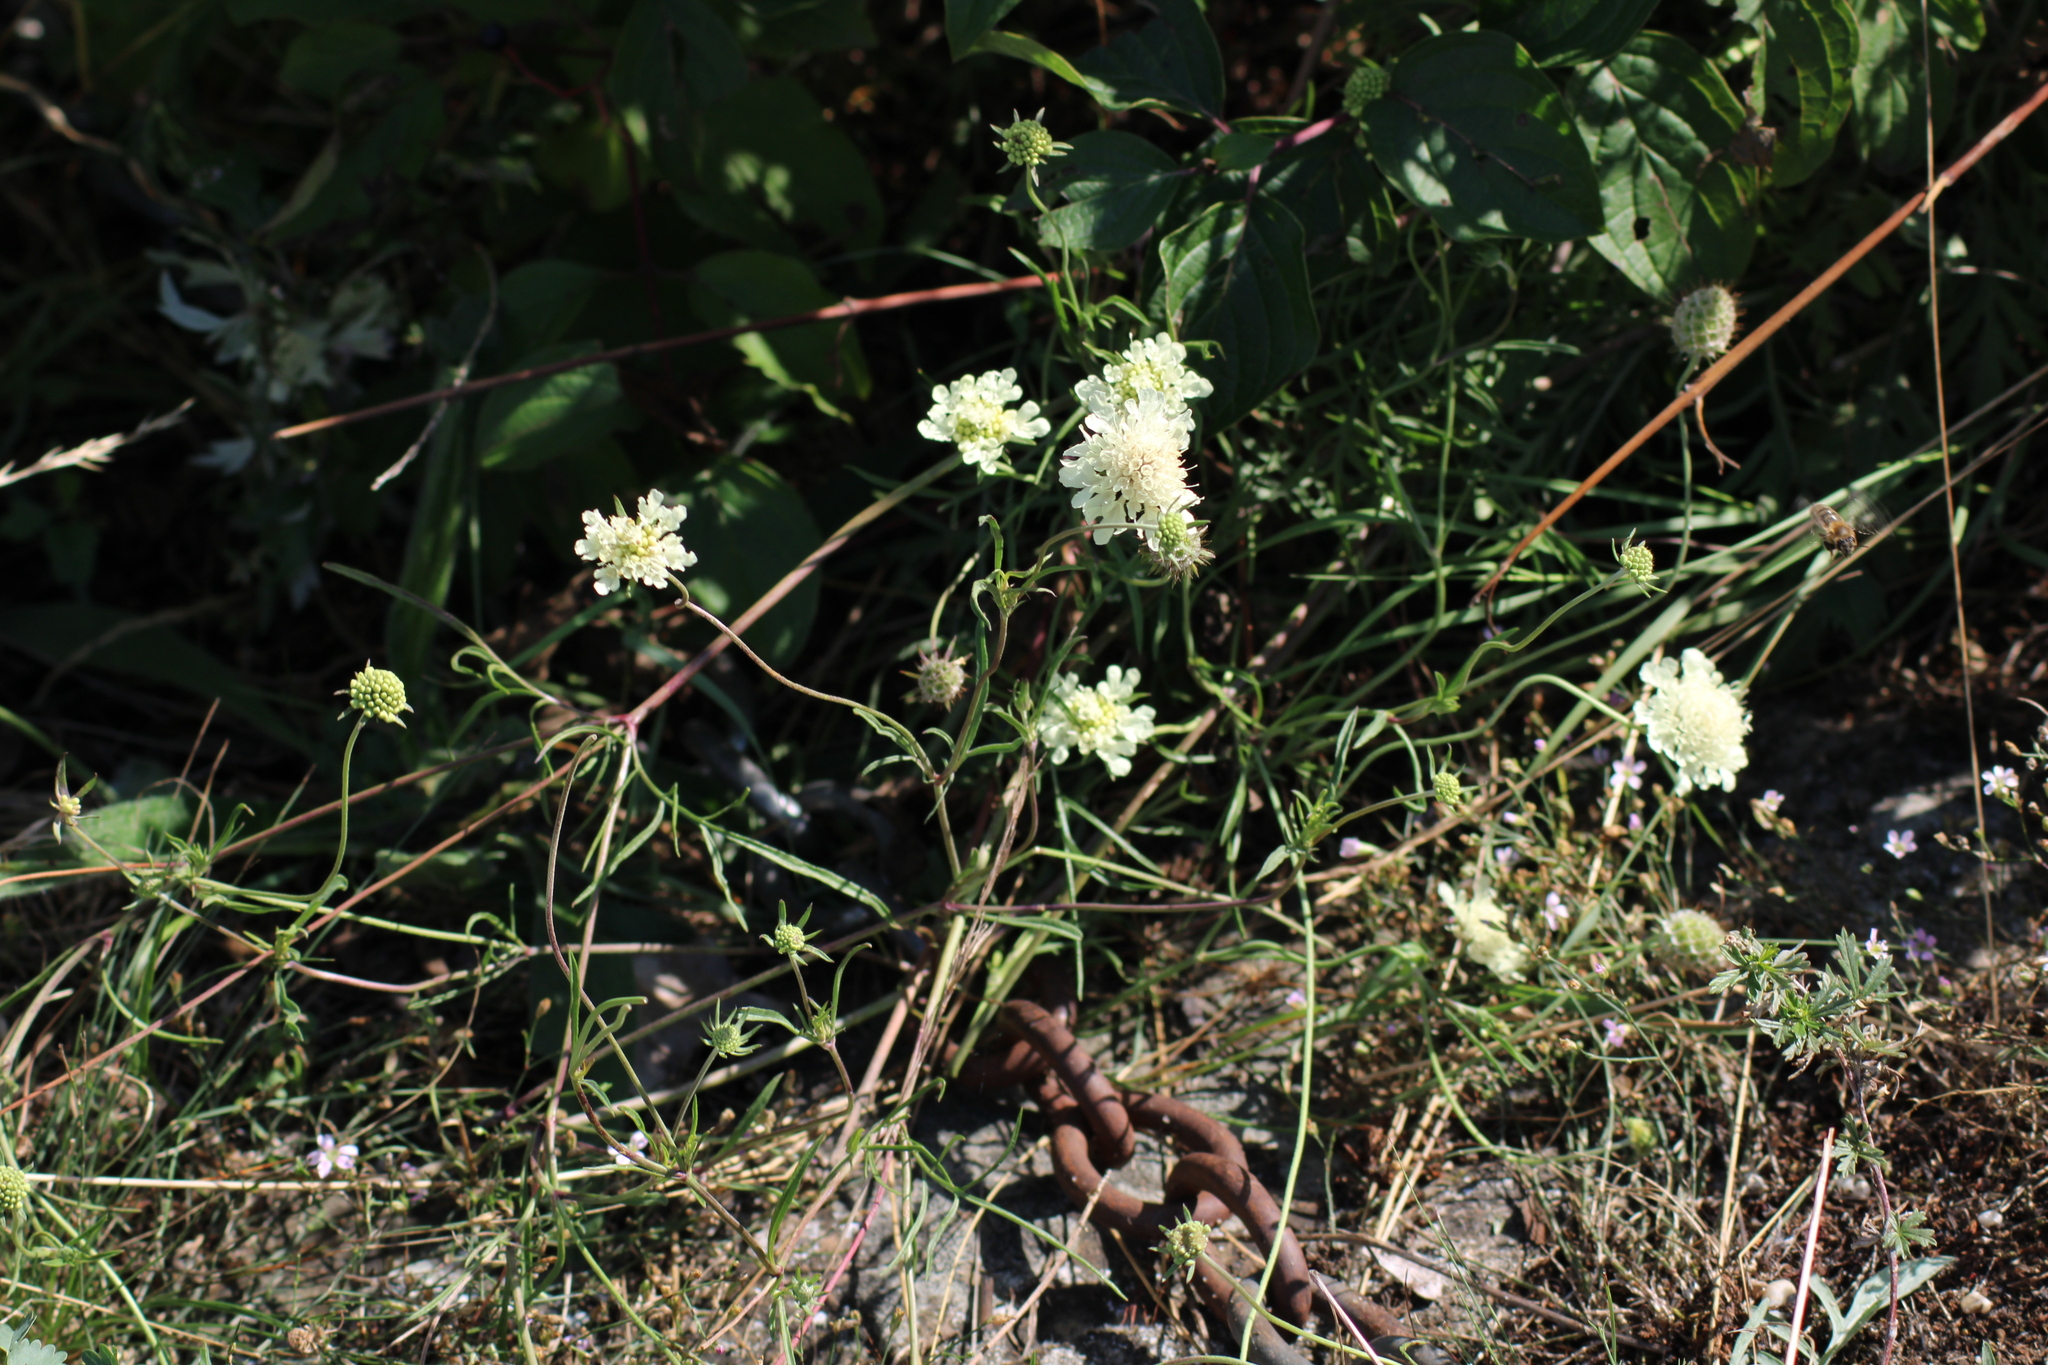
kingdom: Plantae
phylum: Tracheophyta
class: Magnoliopsida
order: Dipsacales
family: Caprifoliaceae
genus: Scabiosa
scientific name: Scabiosa ochroleuca
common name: Cream pincushions
